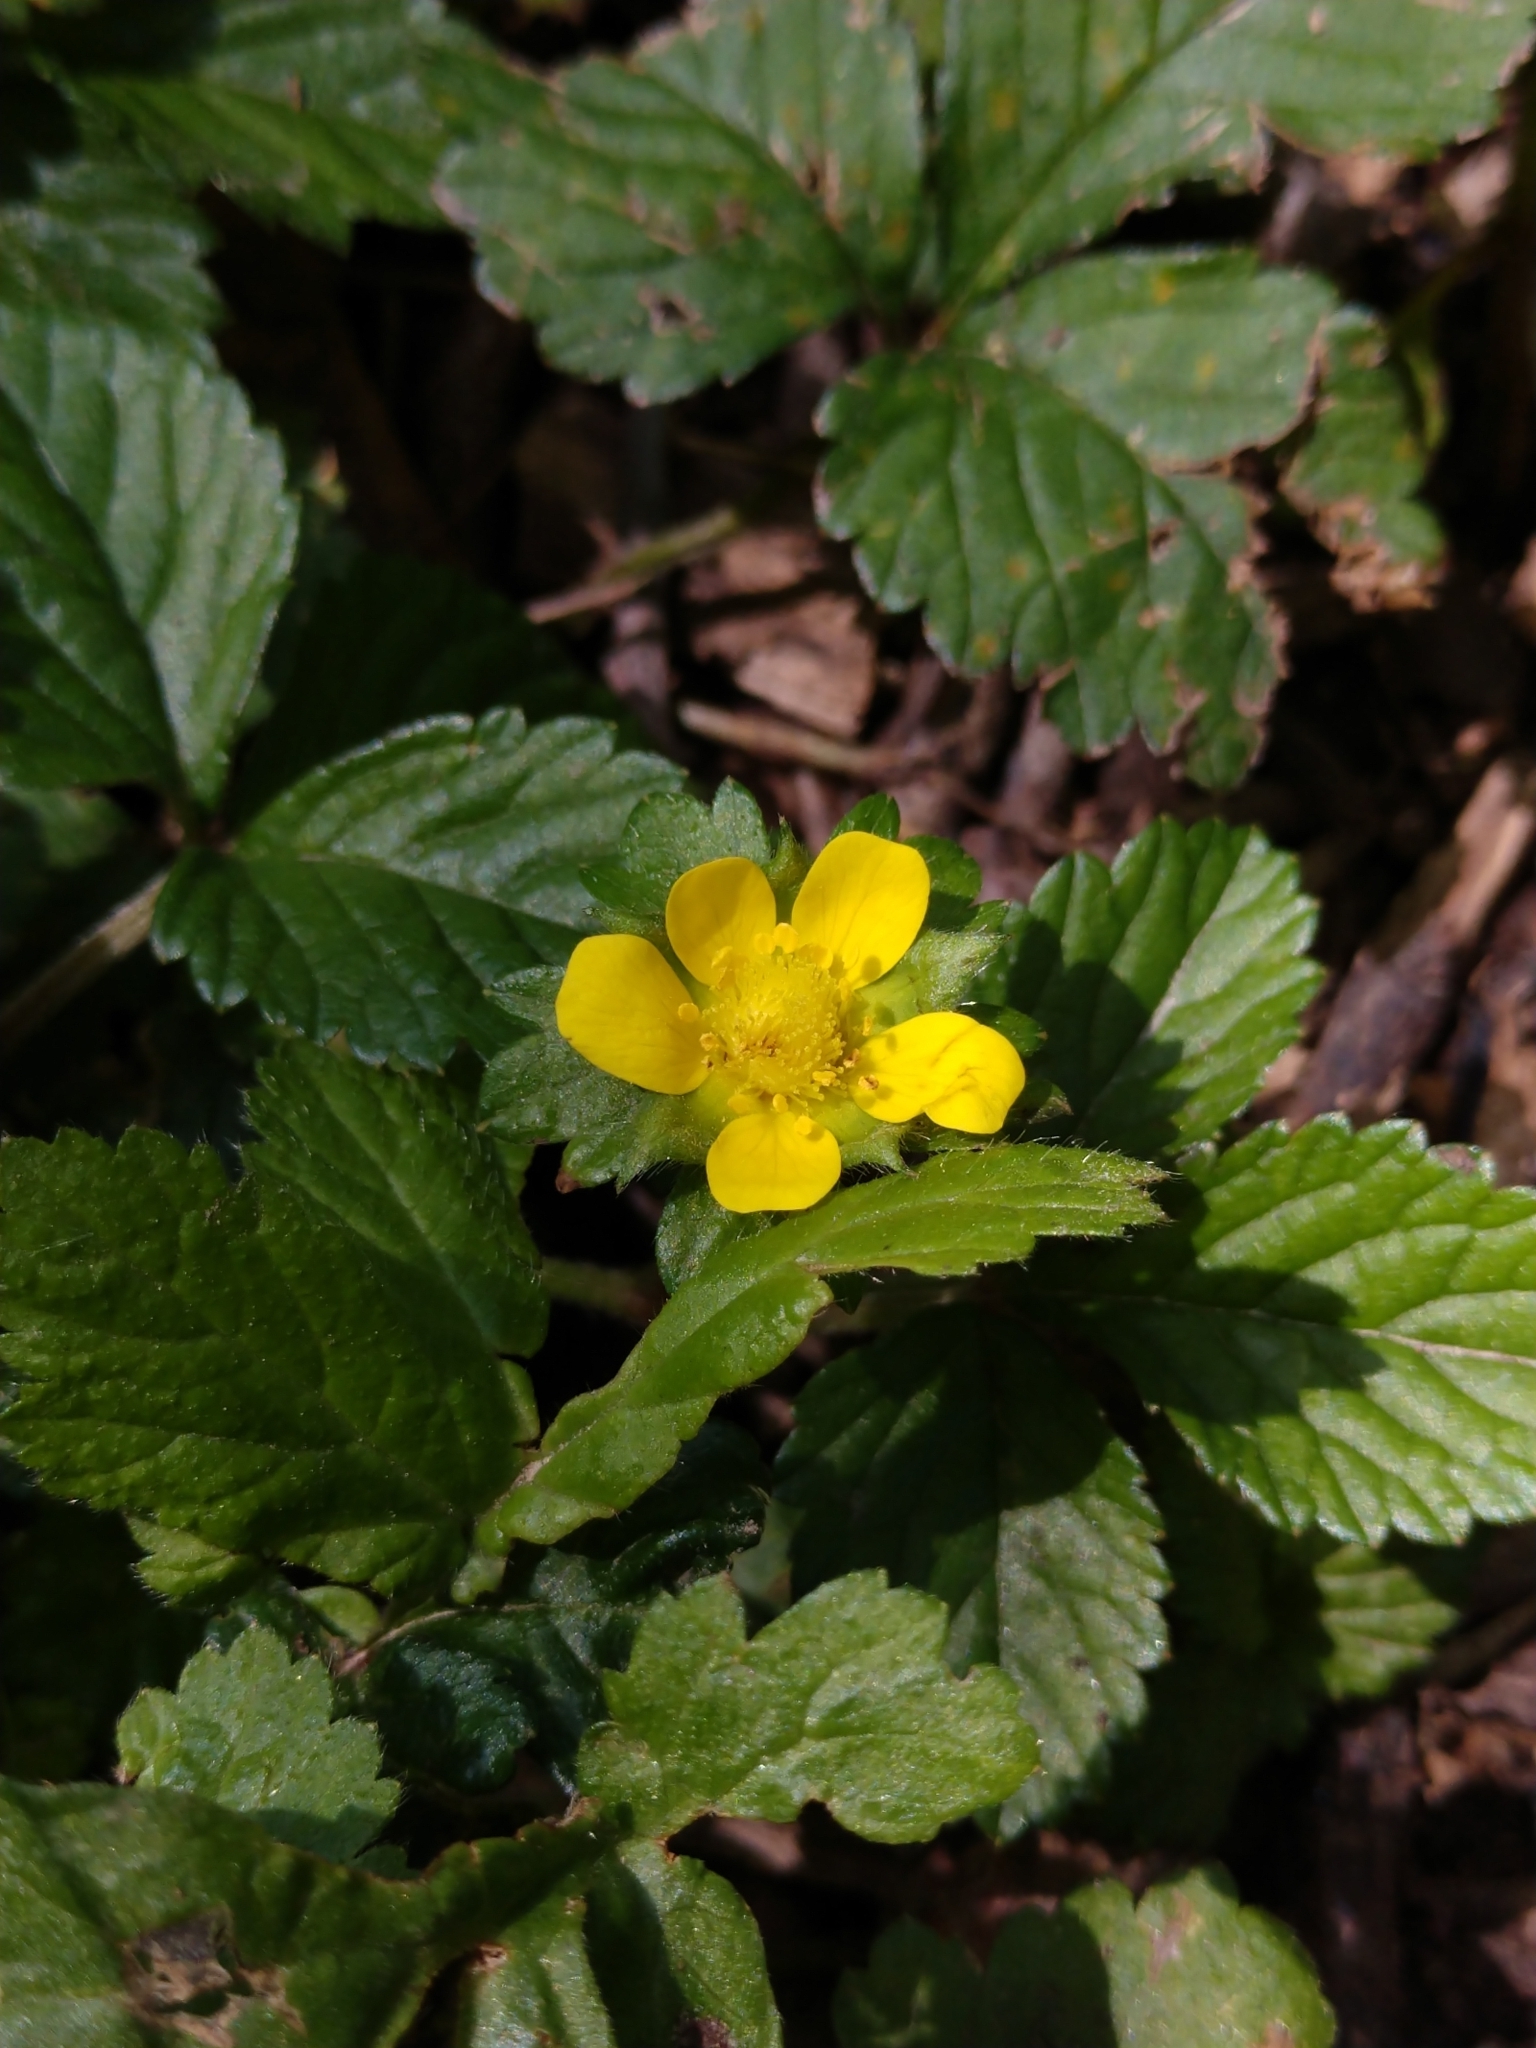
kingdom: Plantae
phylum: Tracheophyta
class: Magnoliopsida
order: Rosales
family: Rosaceae
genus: Potentilla
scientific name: Potentilla indica
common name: Yellow-flowered strawberry
